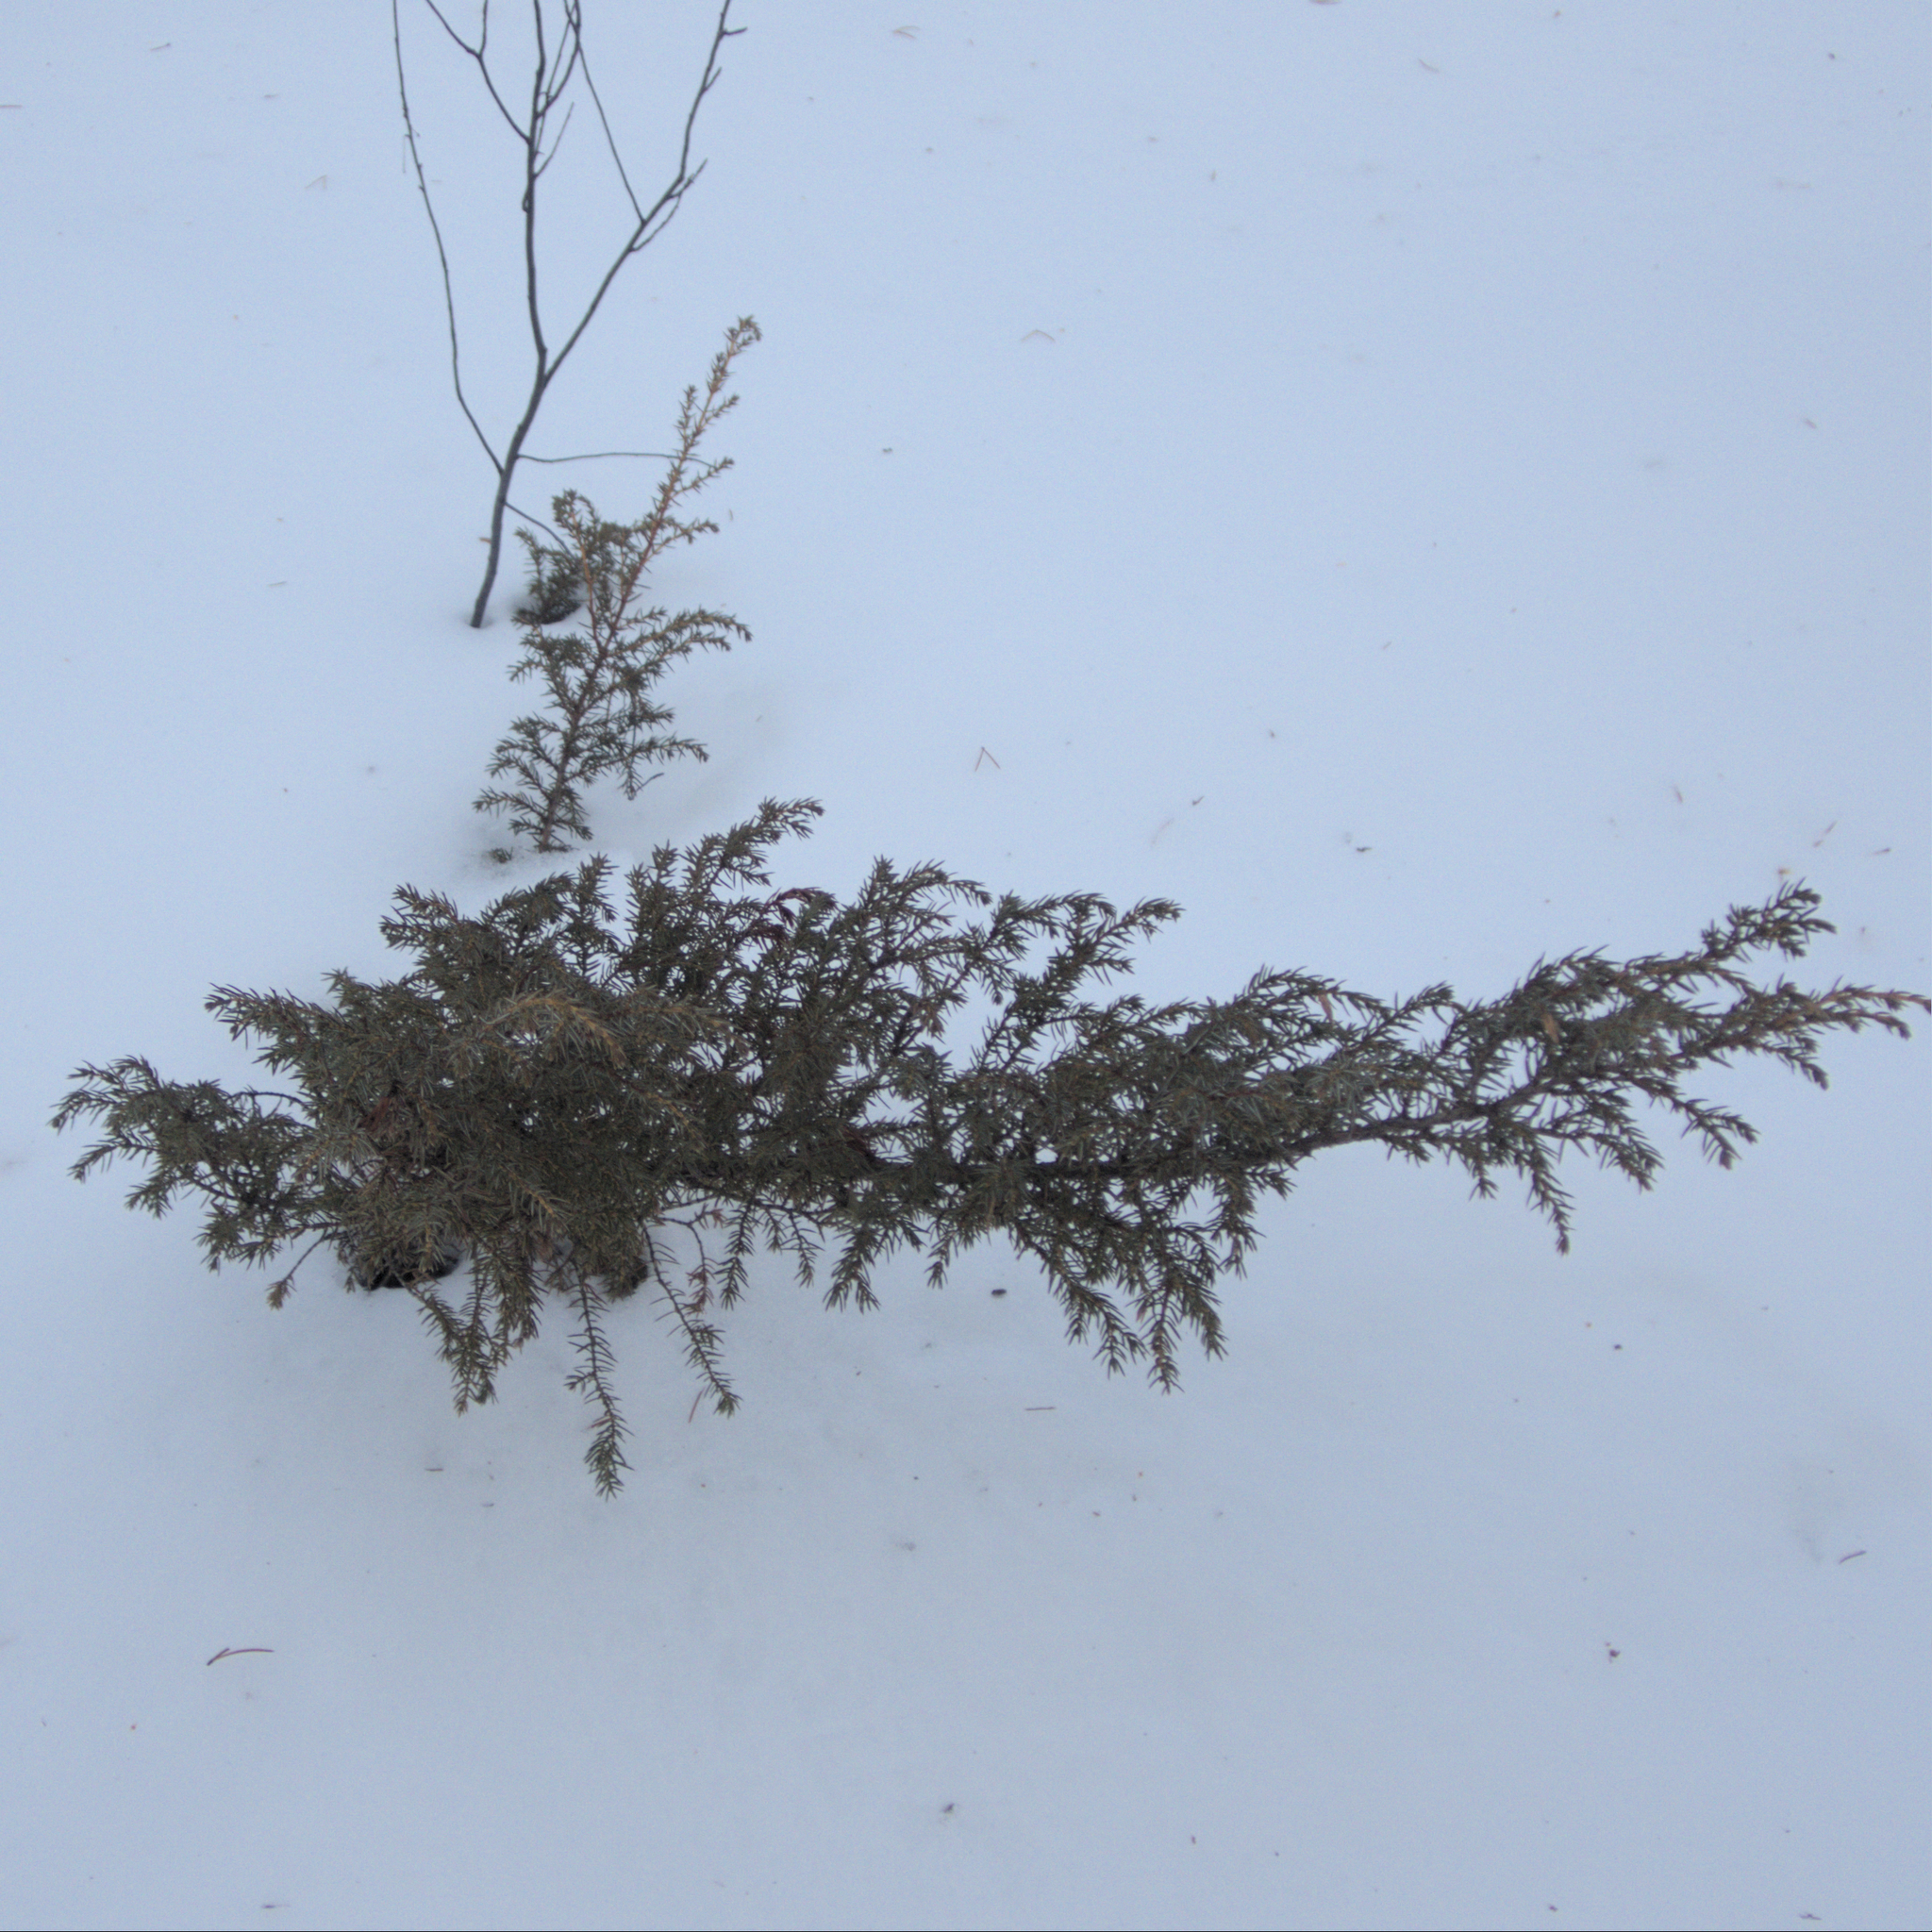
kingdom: Plantae
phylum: Tracheophyta
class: Pinopsida
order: Pinales
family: Cupressaceae
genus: Juniperus
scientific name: Juniperus communis
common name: Common juniper
